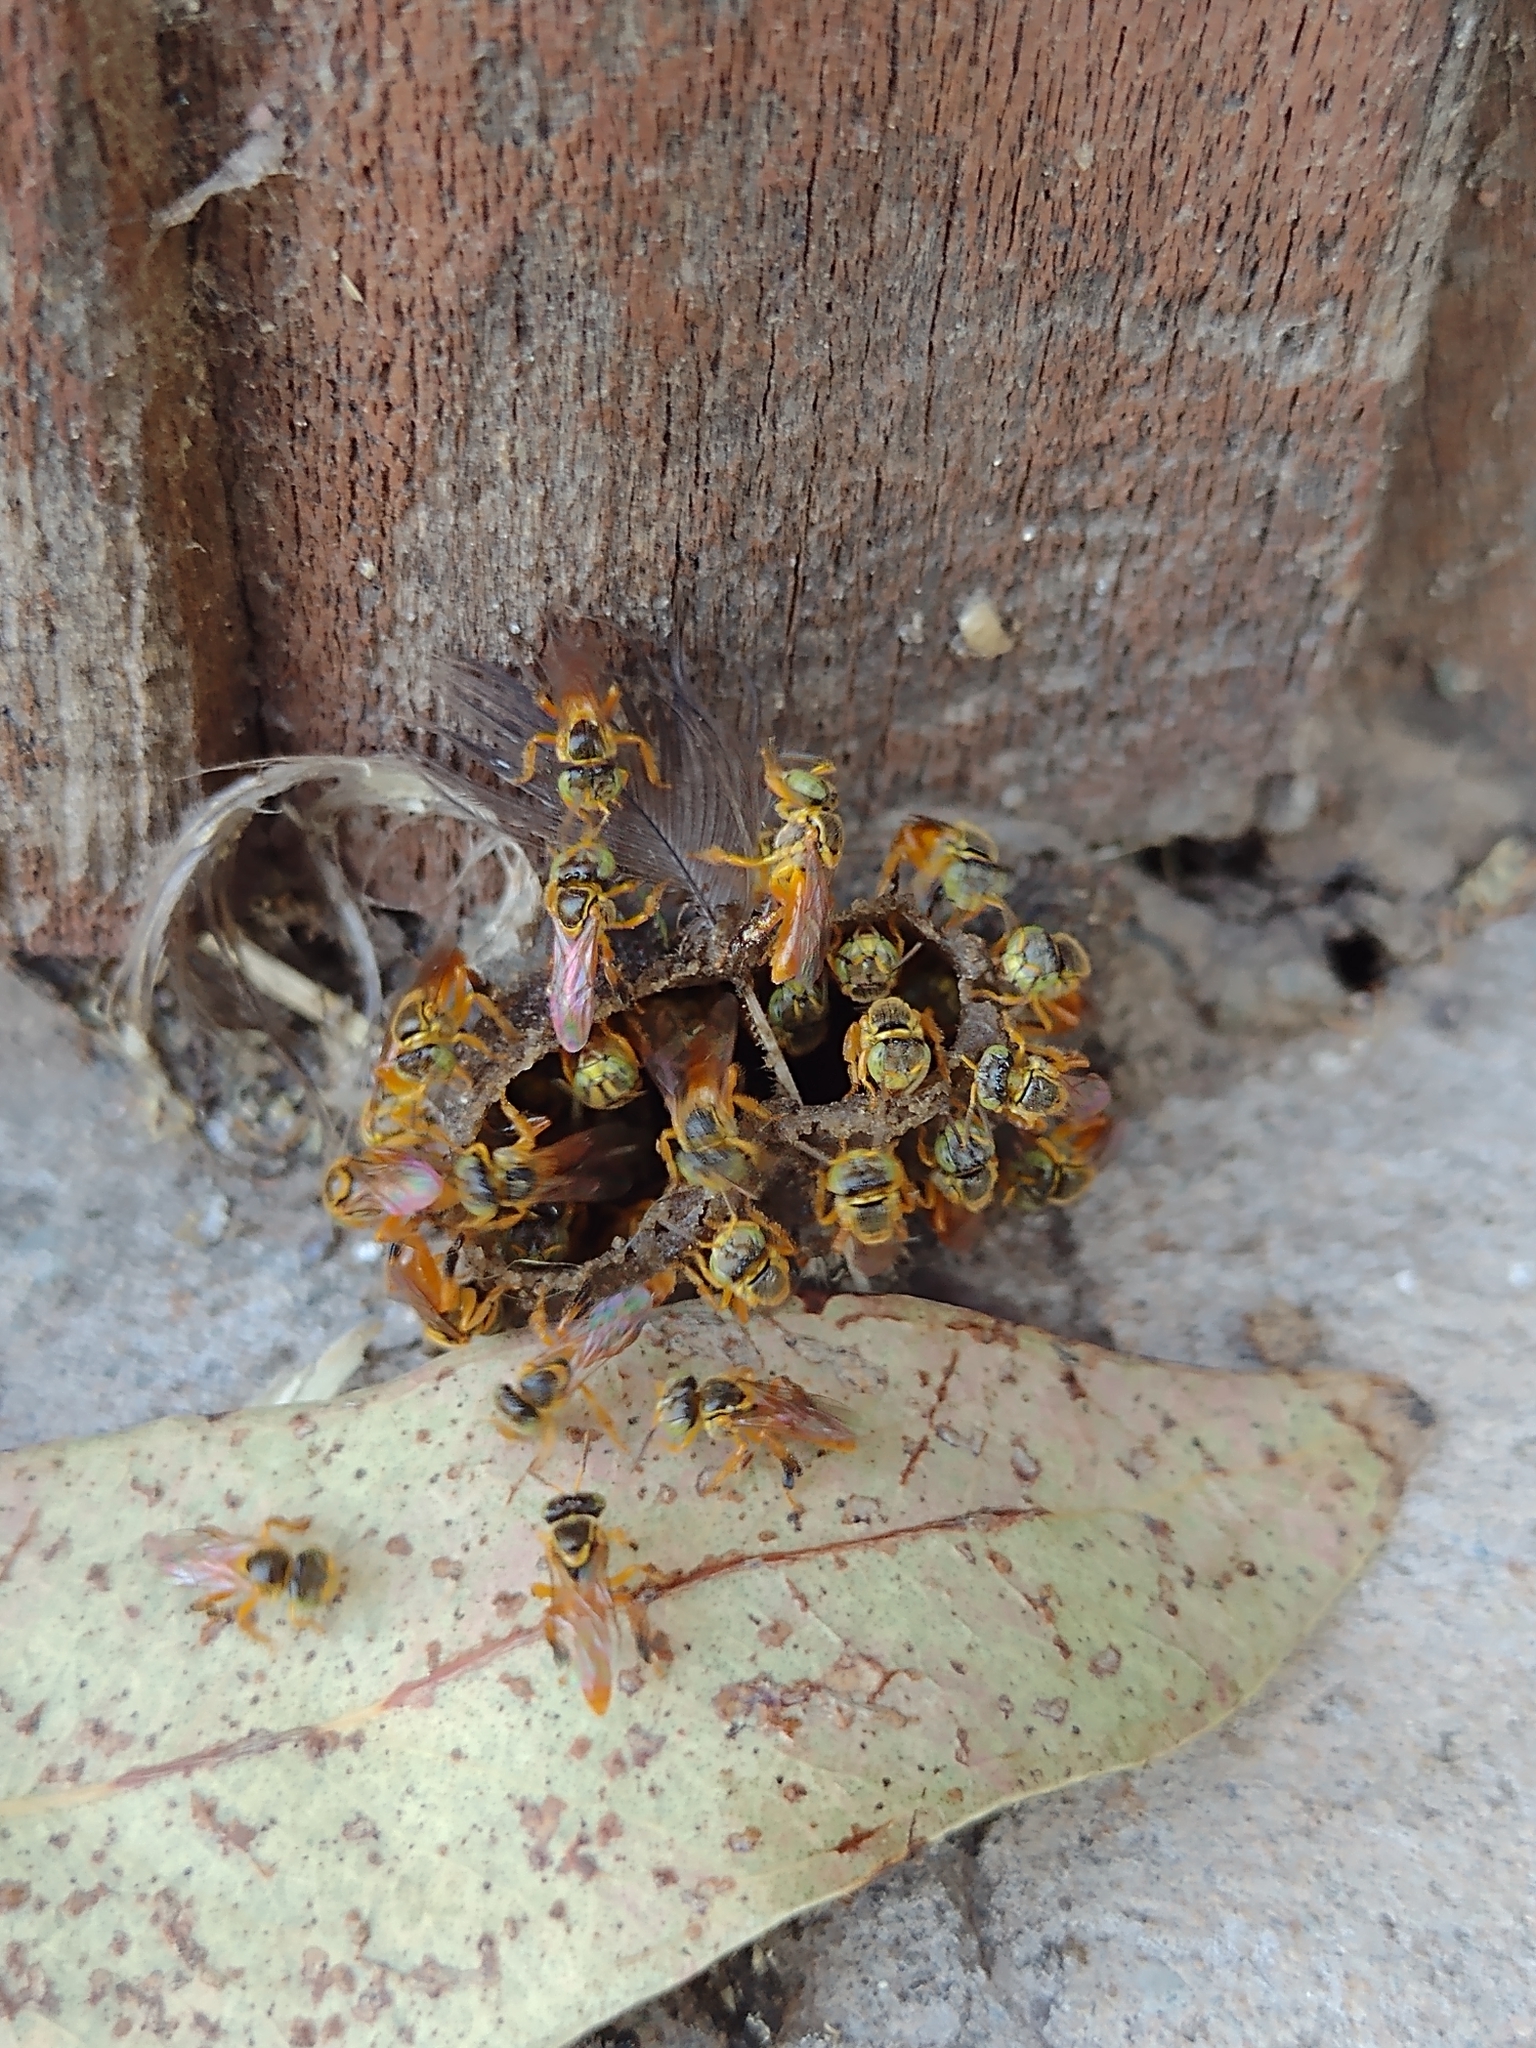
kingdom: Animalia
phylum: Arthropoda
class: Insecta
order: Hymenoptera
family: Apidae
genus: Tetragonisca
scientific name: Tetragonisca fiebrigi
